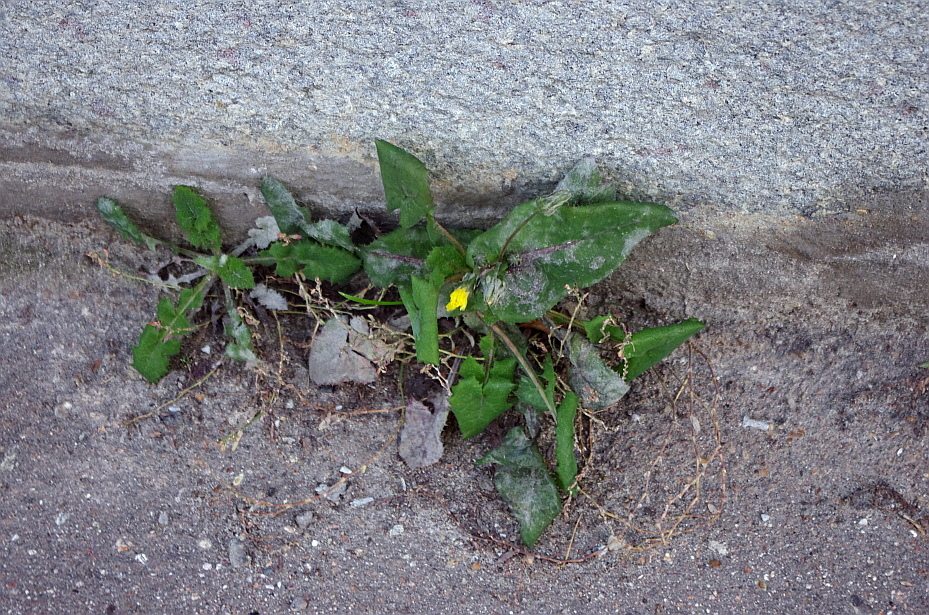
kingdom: Plantae
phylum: Tracheophyta
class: Magnoliopsida
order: Asterales
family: Asteraceae
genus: Sonchus
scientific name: Sonchus oleraceus
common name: Common sowthistle
